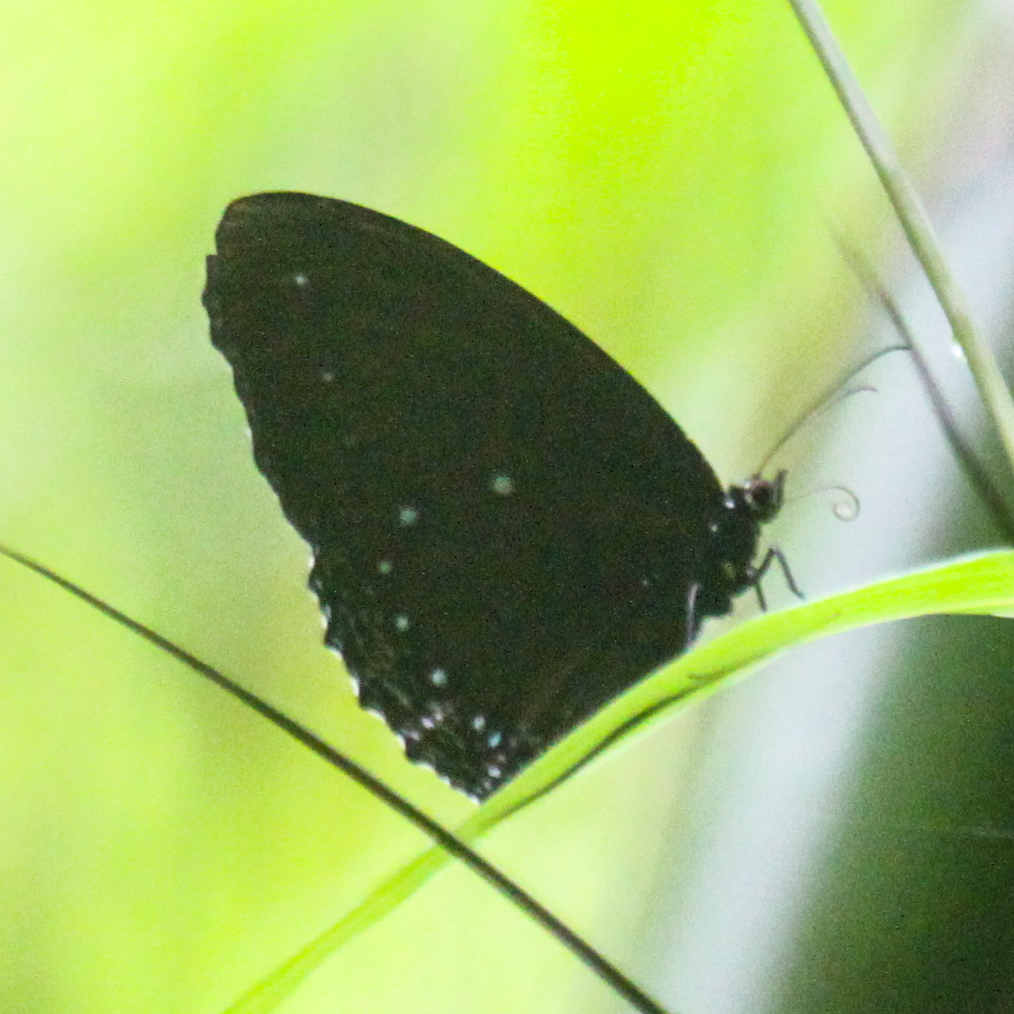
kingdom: Animalia
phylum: Arthropoda
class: Insecta
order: Lepidoptera
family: Nymphalidae
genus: Elymnias
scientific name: Elymnias patna
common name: Blue-striped palmfly
